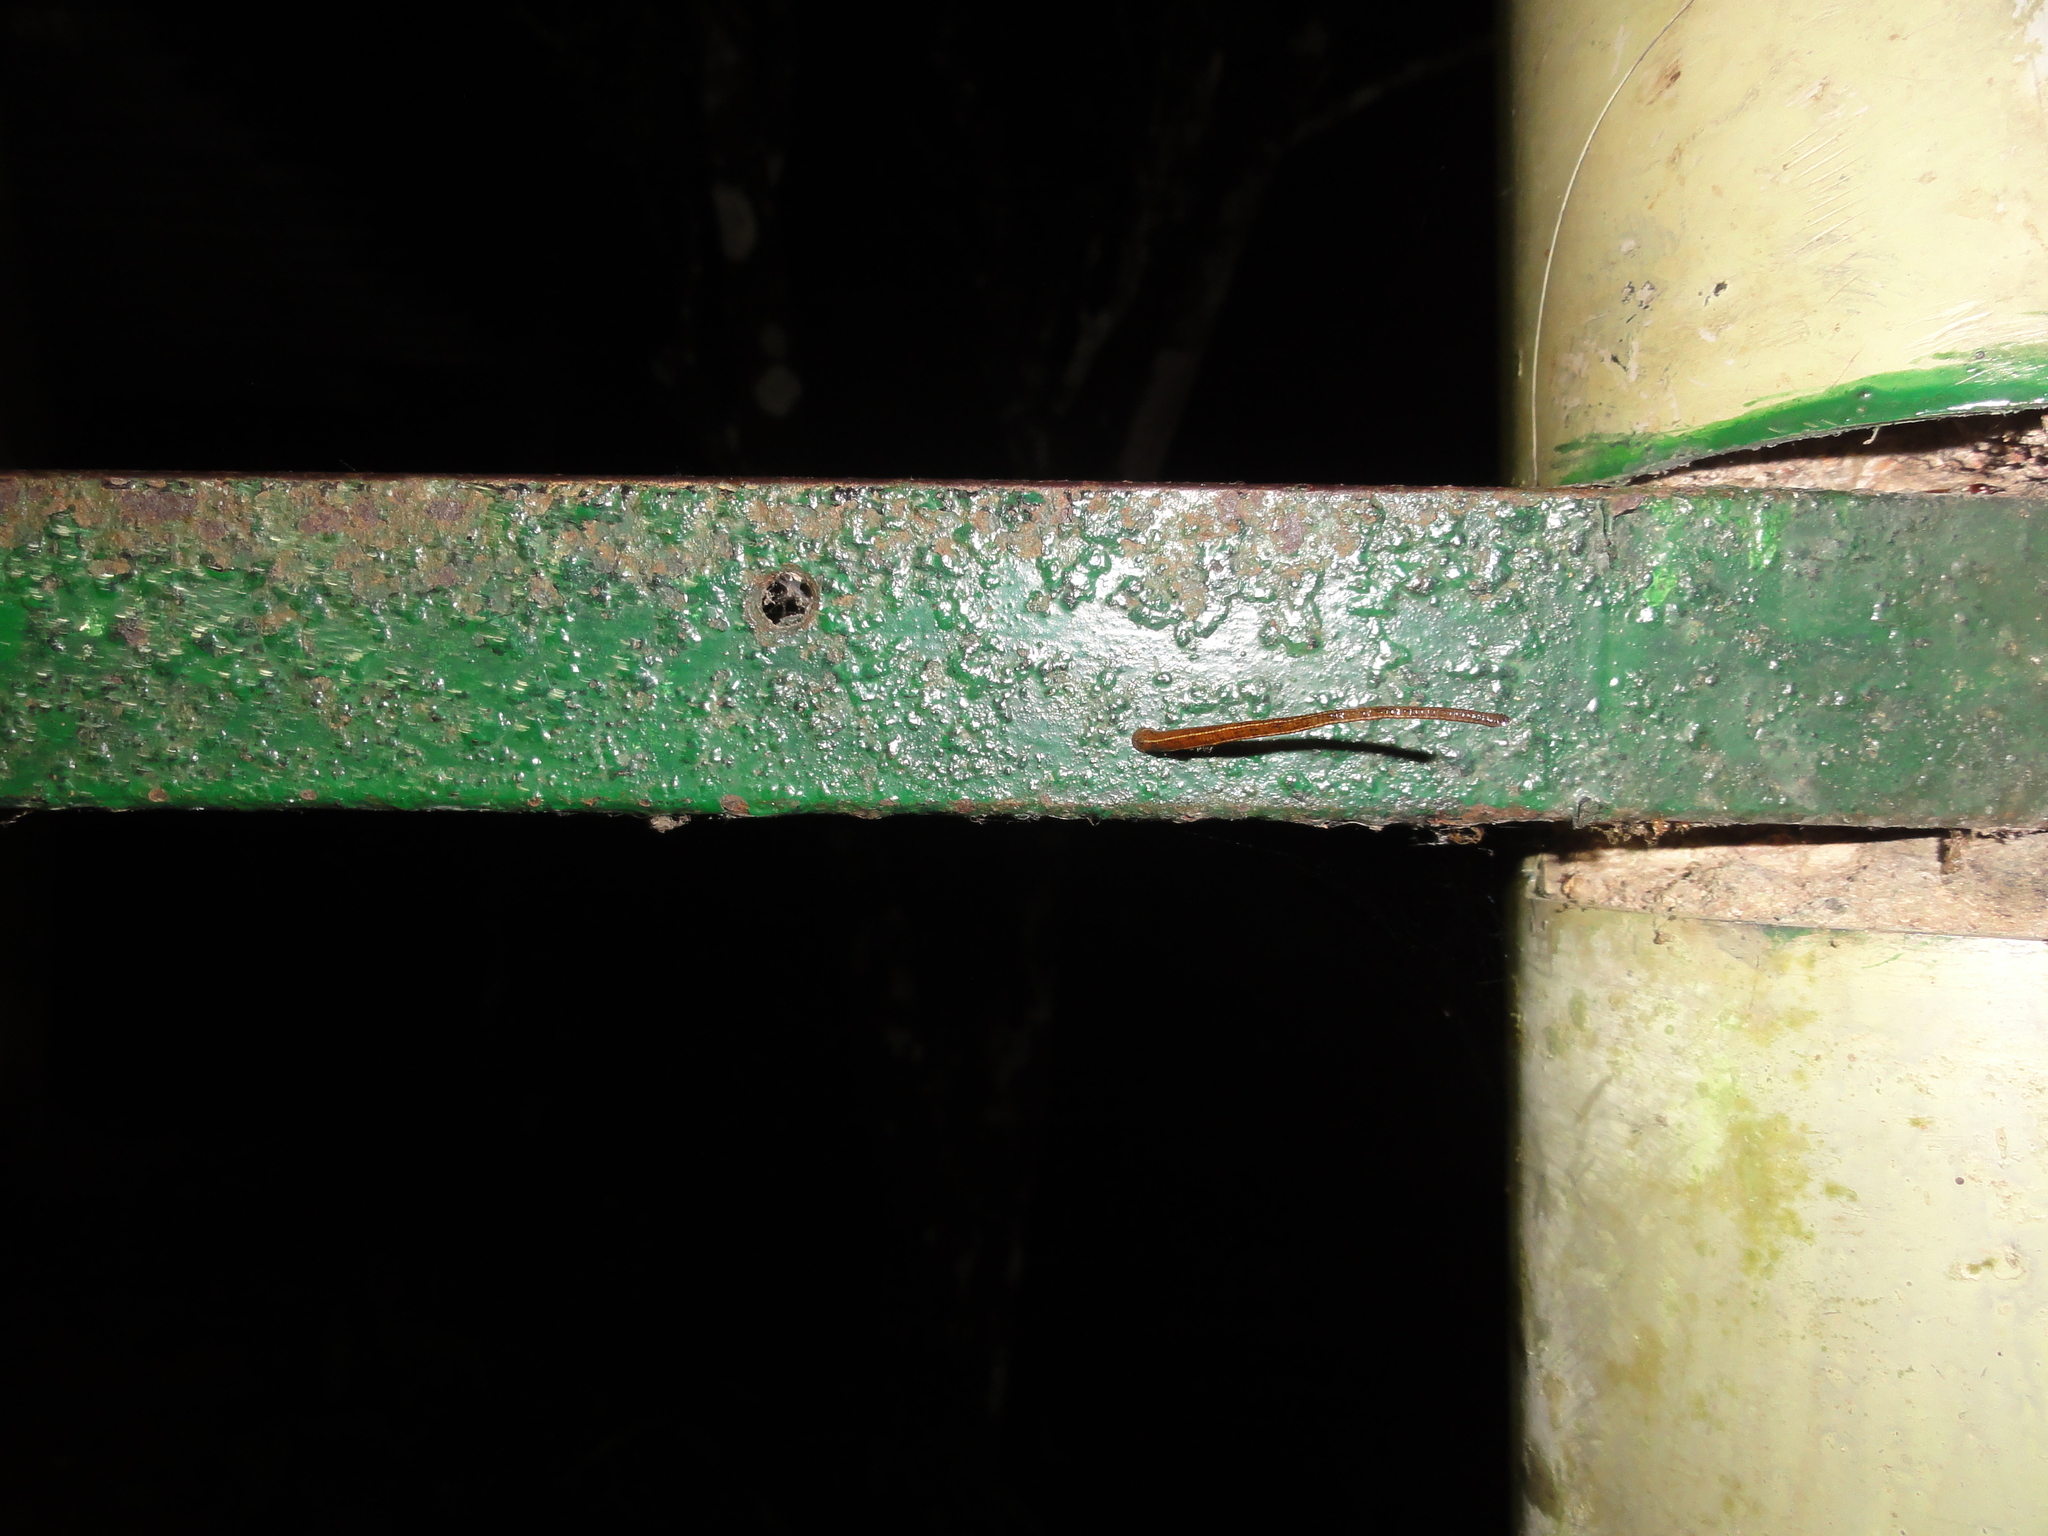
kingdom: Animalia
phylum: Annelida
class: Clitellata
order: Arhynchobdellida
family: Haemadipsidae
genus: Haemadipsa
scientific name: Haemadipsa zeylanica
